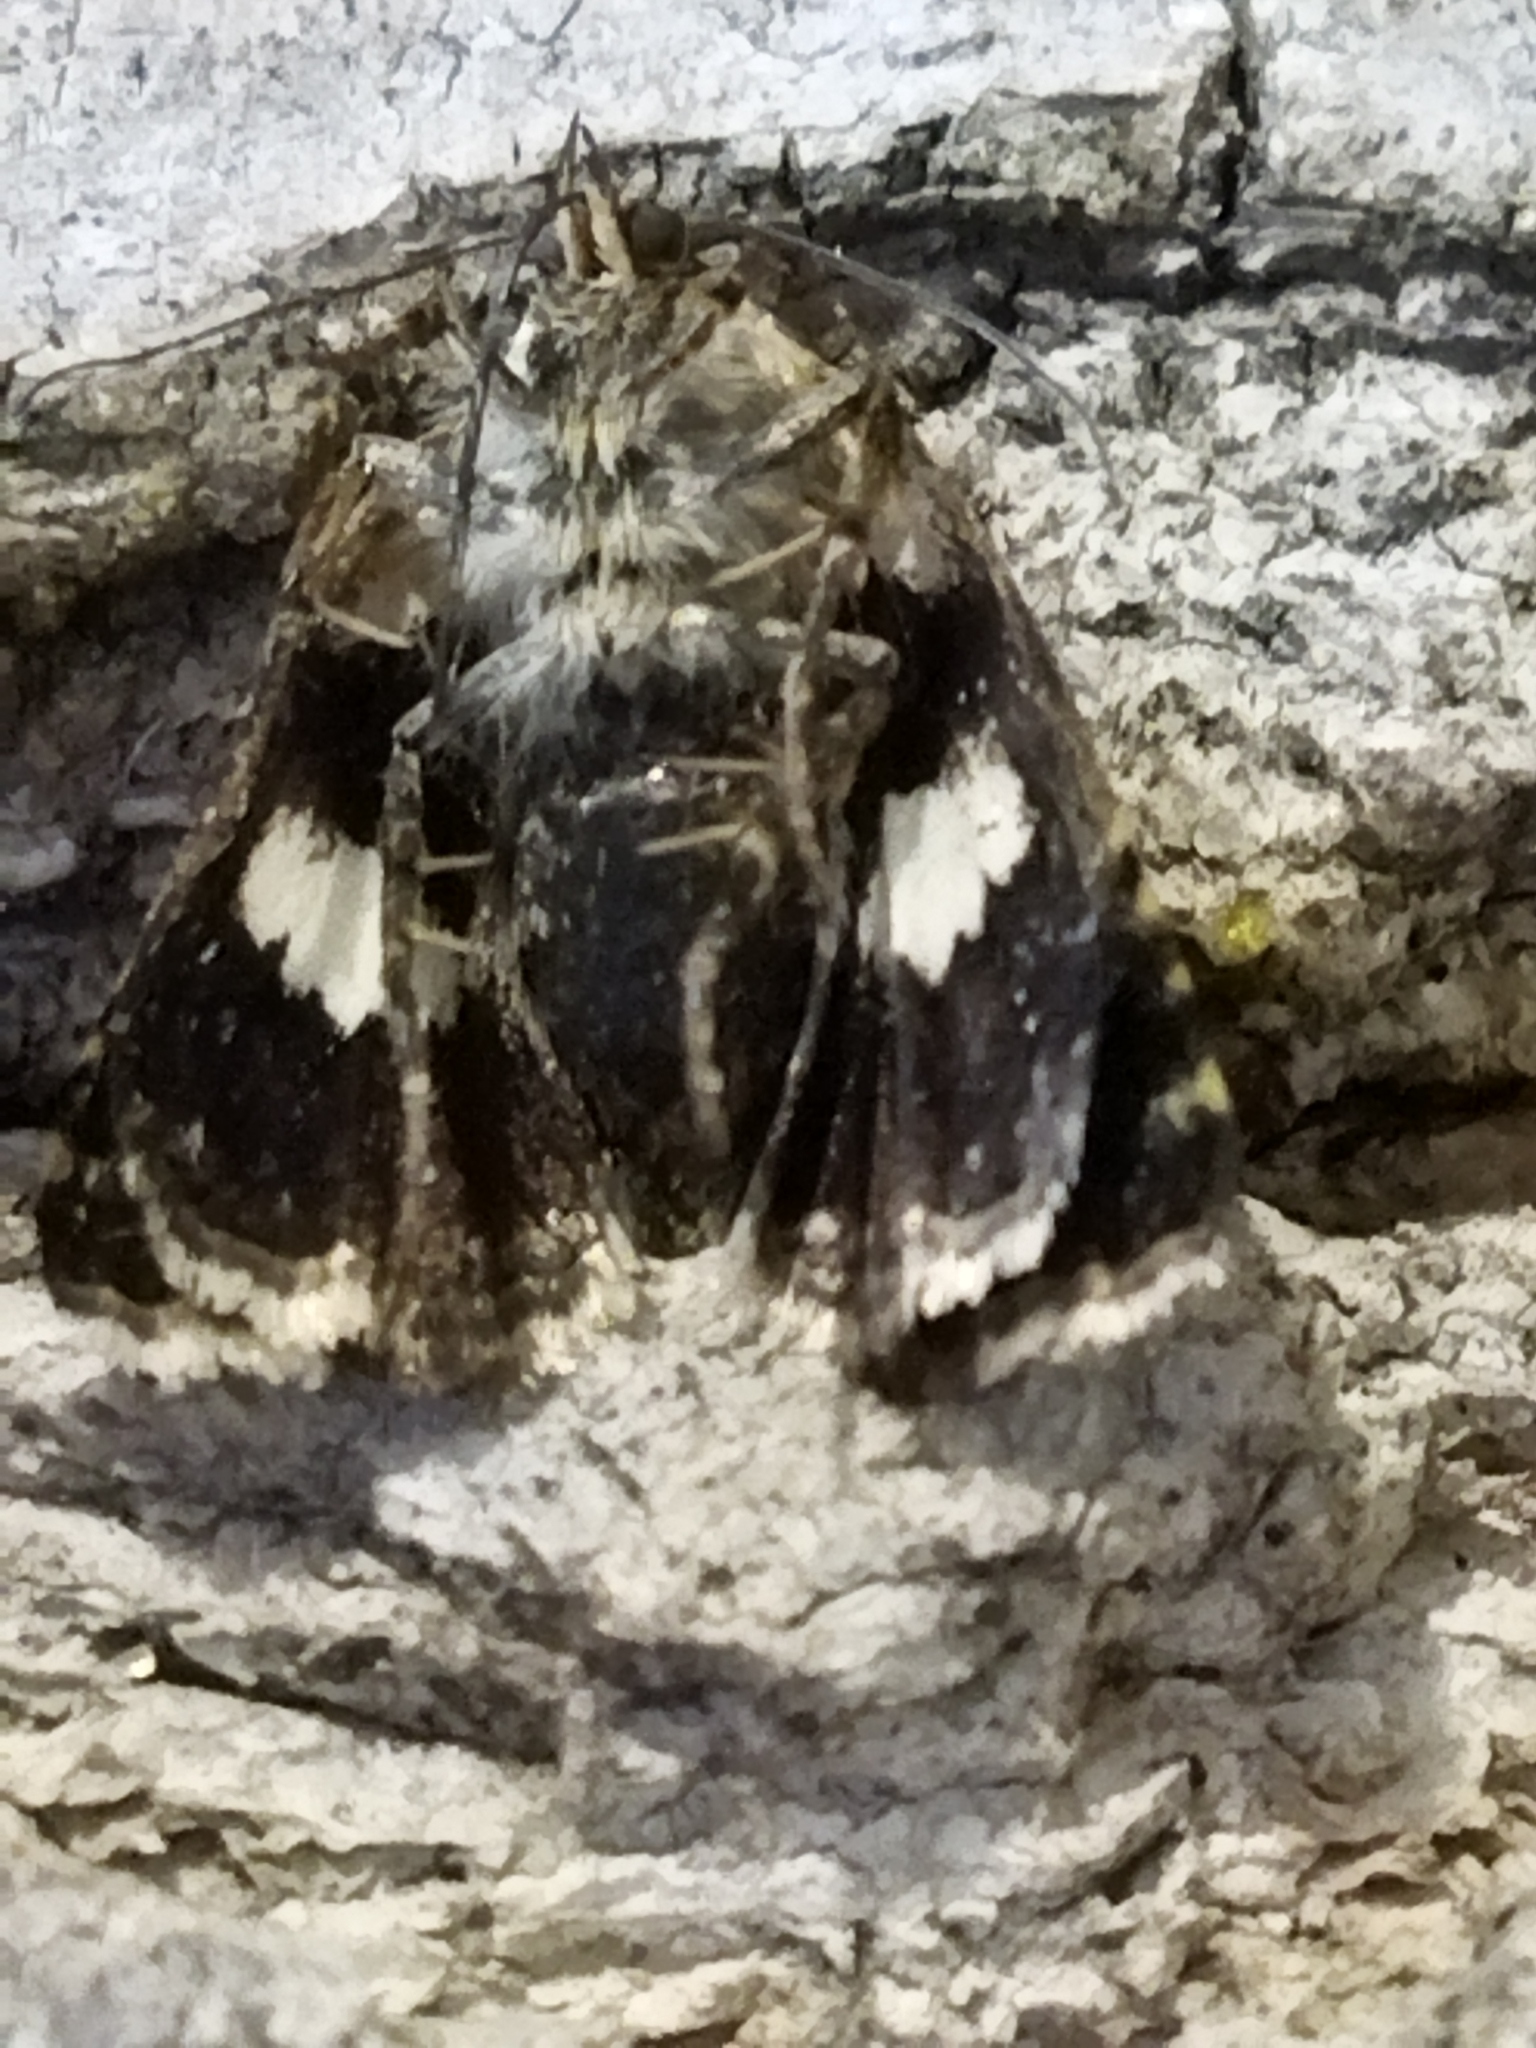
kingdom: Animalia
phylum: Arthropoda
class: Insecta
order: Lepidoptera
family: Erebidae
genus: Tyta
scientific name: Tyta luctuosa
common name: Four-spotted
